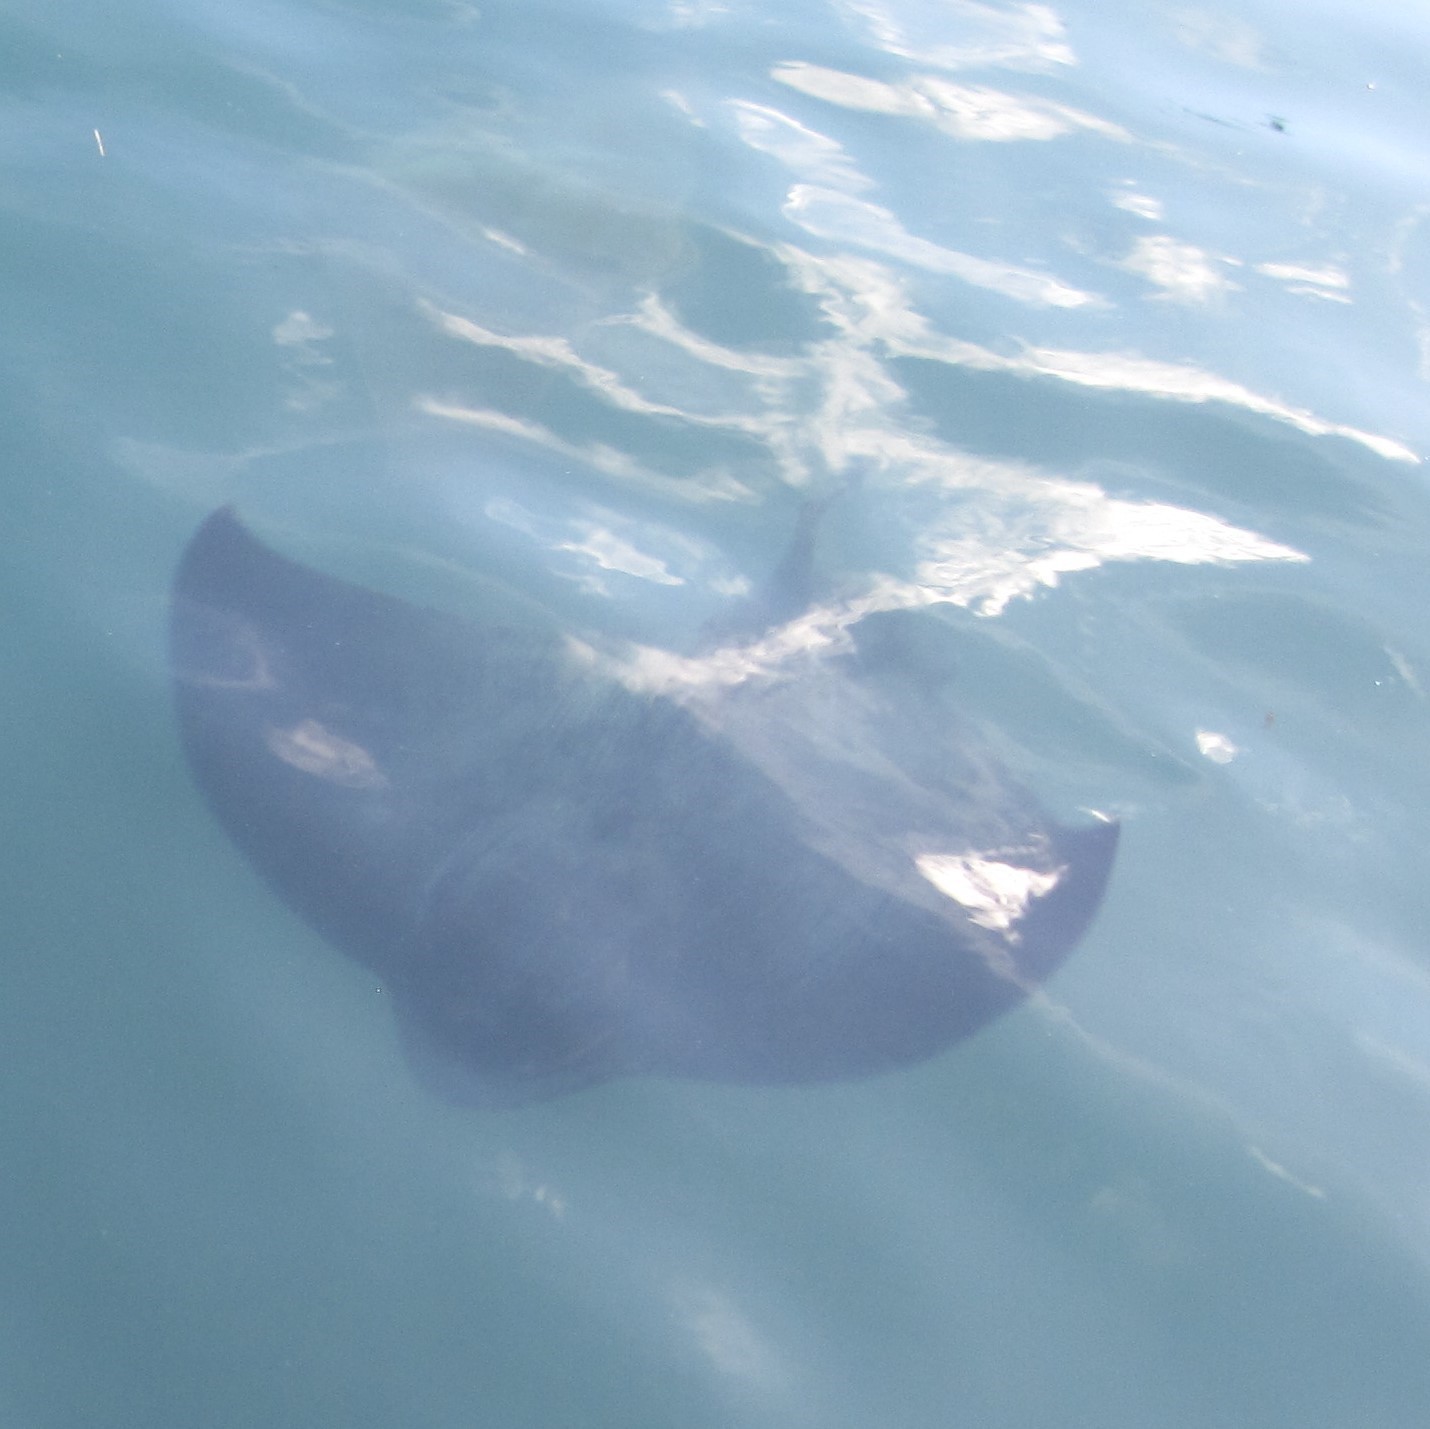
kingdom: Animalia
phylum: Chordata
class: Elasmobranchii
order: Myliobatiformes
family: Myliobatidae
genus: Myliobatis
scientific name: Myliobatis tenuicaudatus
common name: Eagle ray
